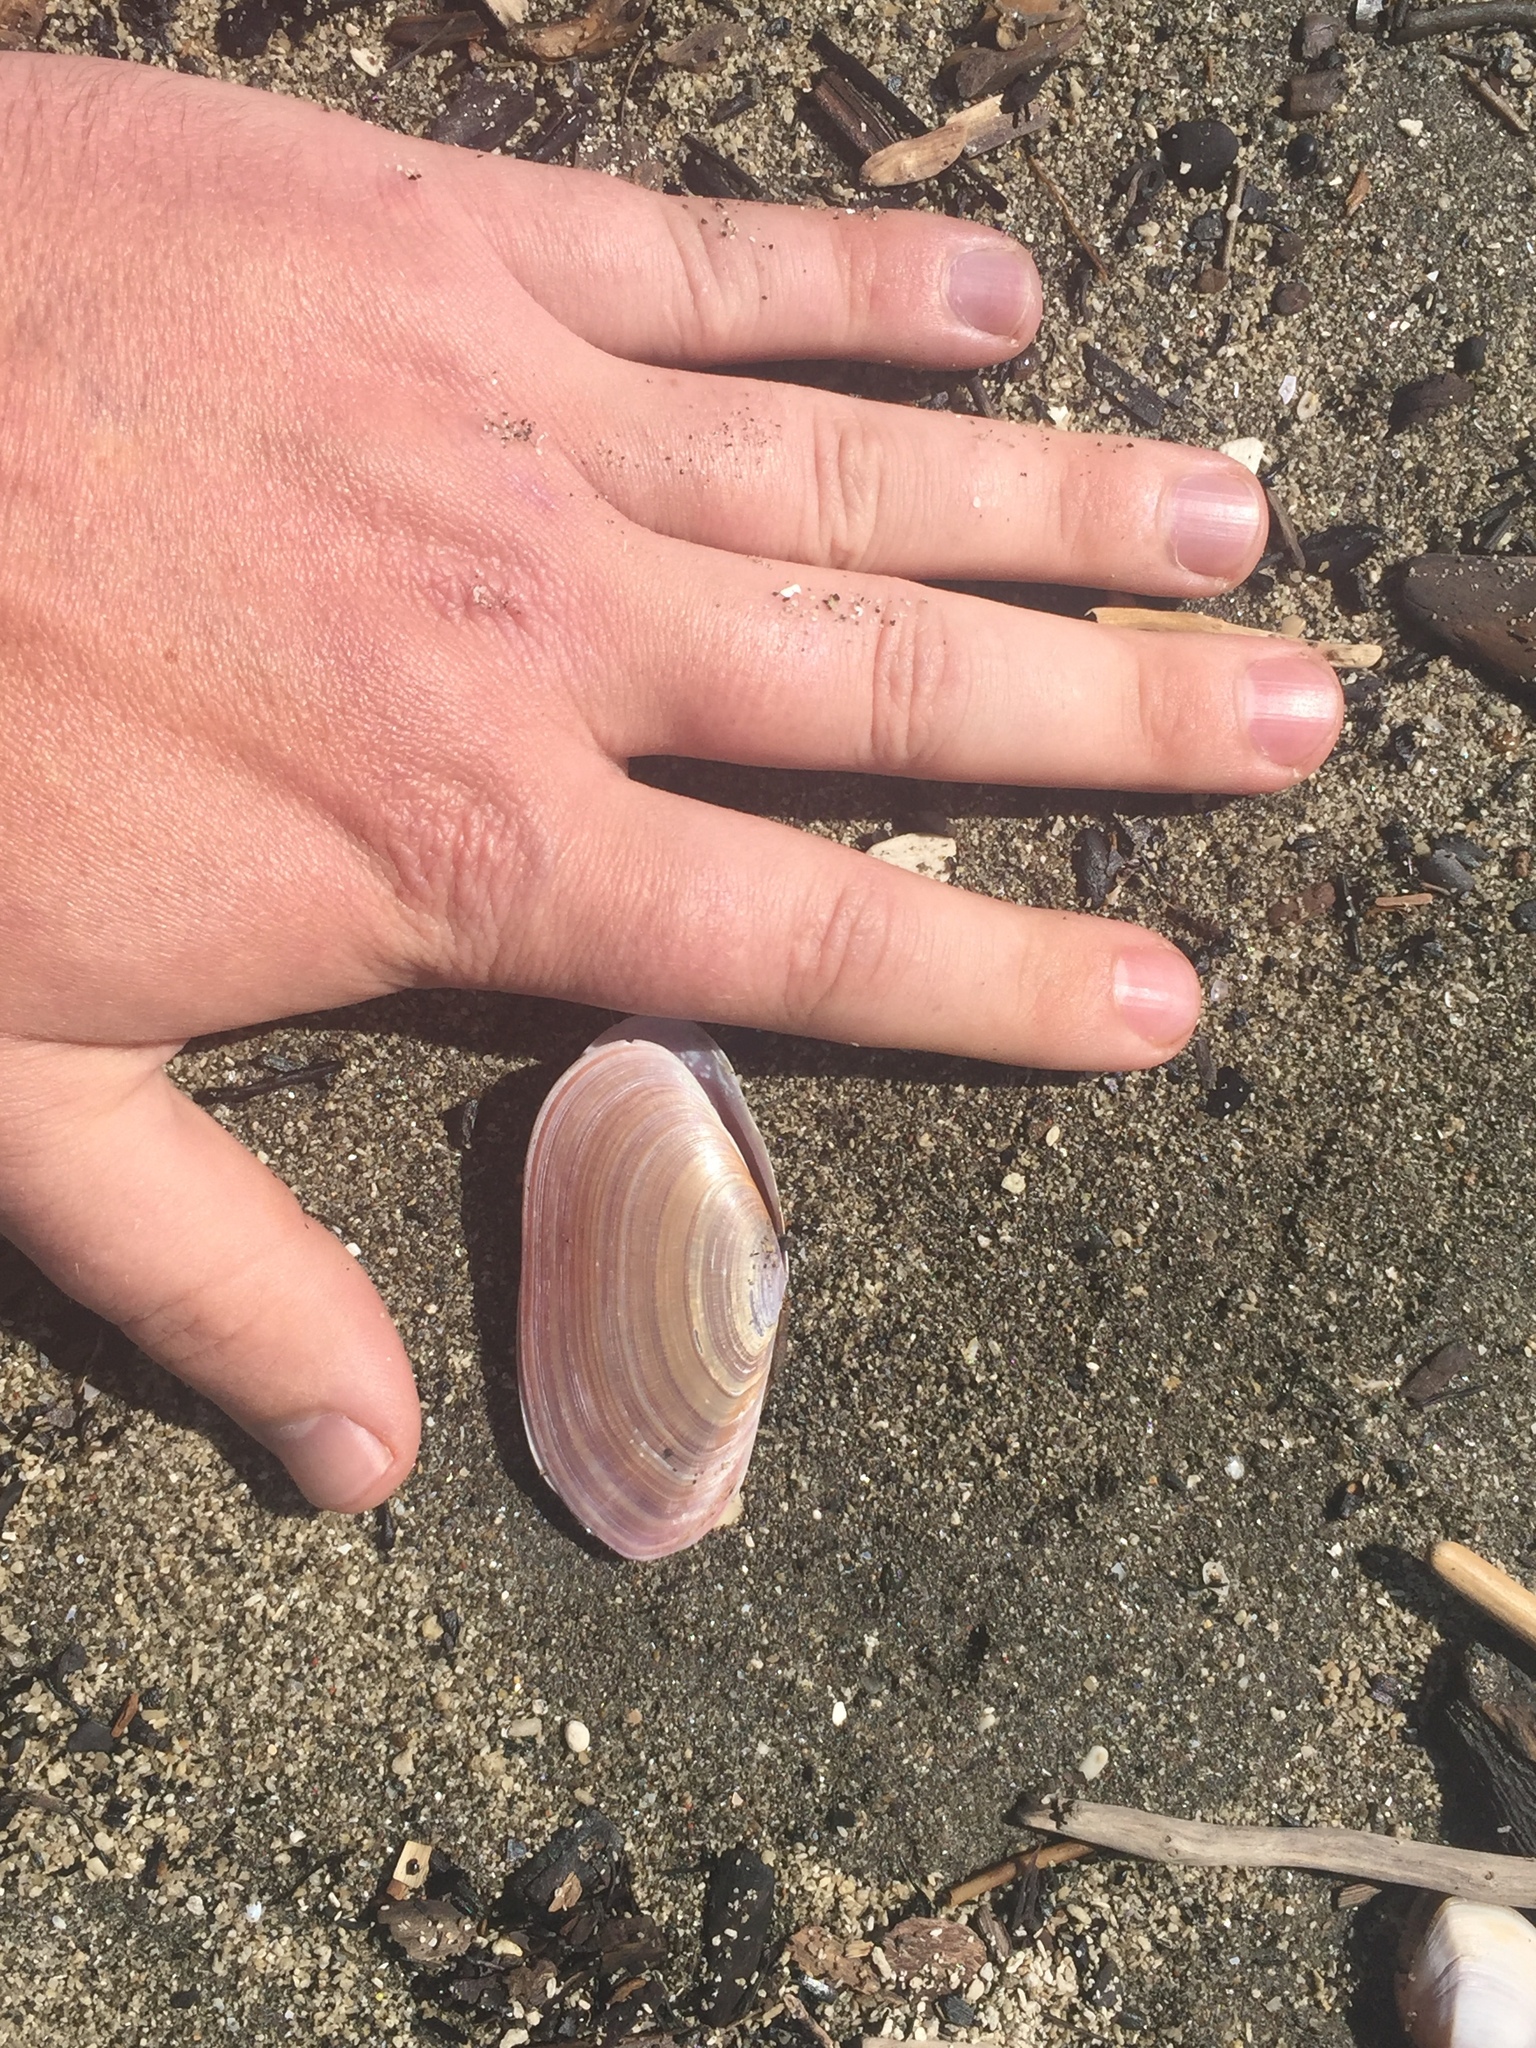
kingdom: Animalia
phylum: Mollusca
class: Bivalvia
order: Cardiida
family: Psammobiidae
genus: Gari
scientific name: Gari lineolata
